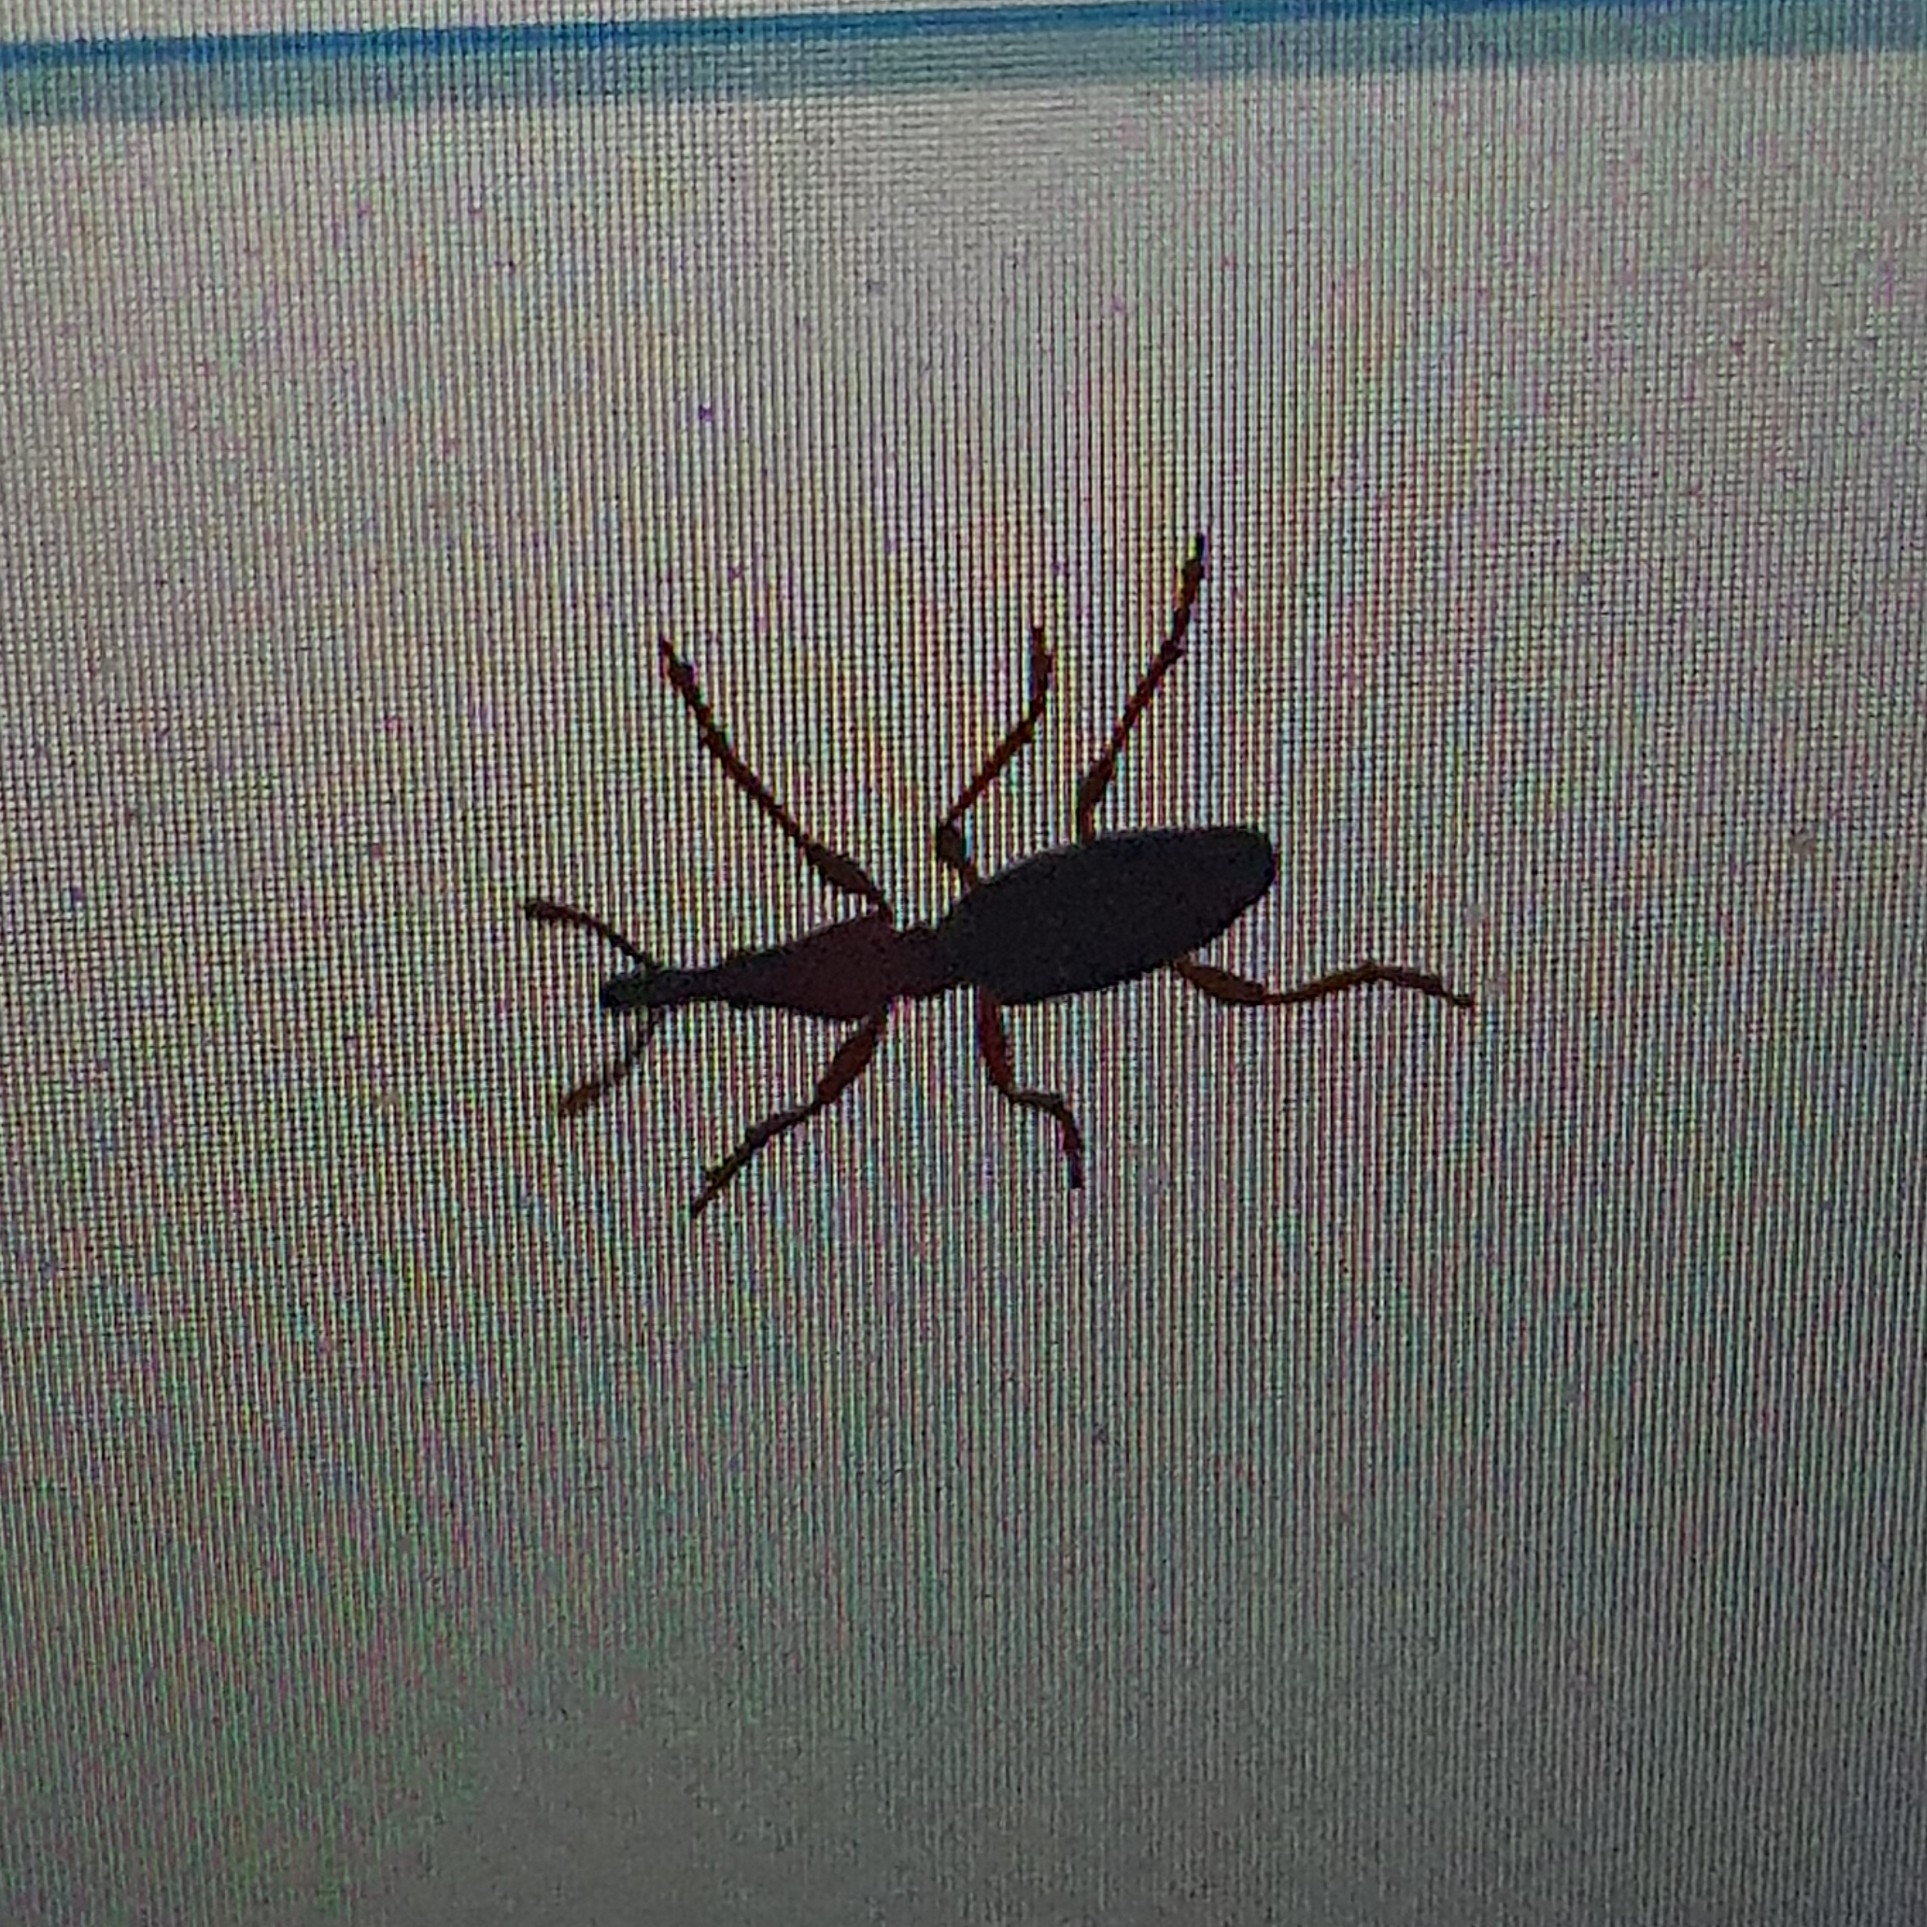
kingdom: Animalia
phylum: Arthropoda
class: Insecta
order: Coleoptera
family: Brentidae
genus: Cylas
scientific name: Cylas formicarius
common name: Sweetpotato weevil
